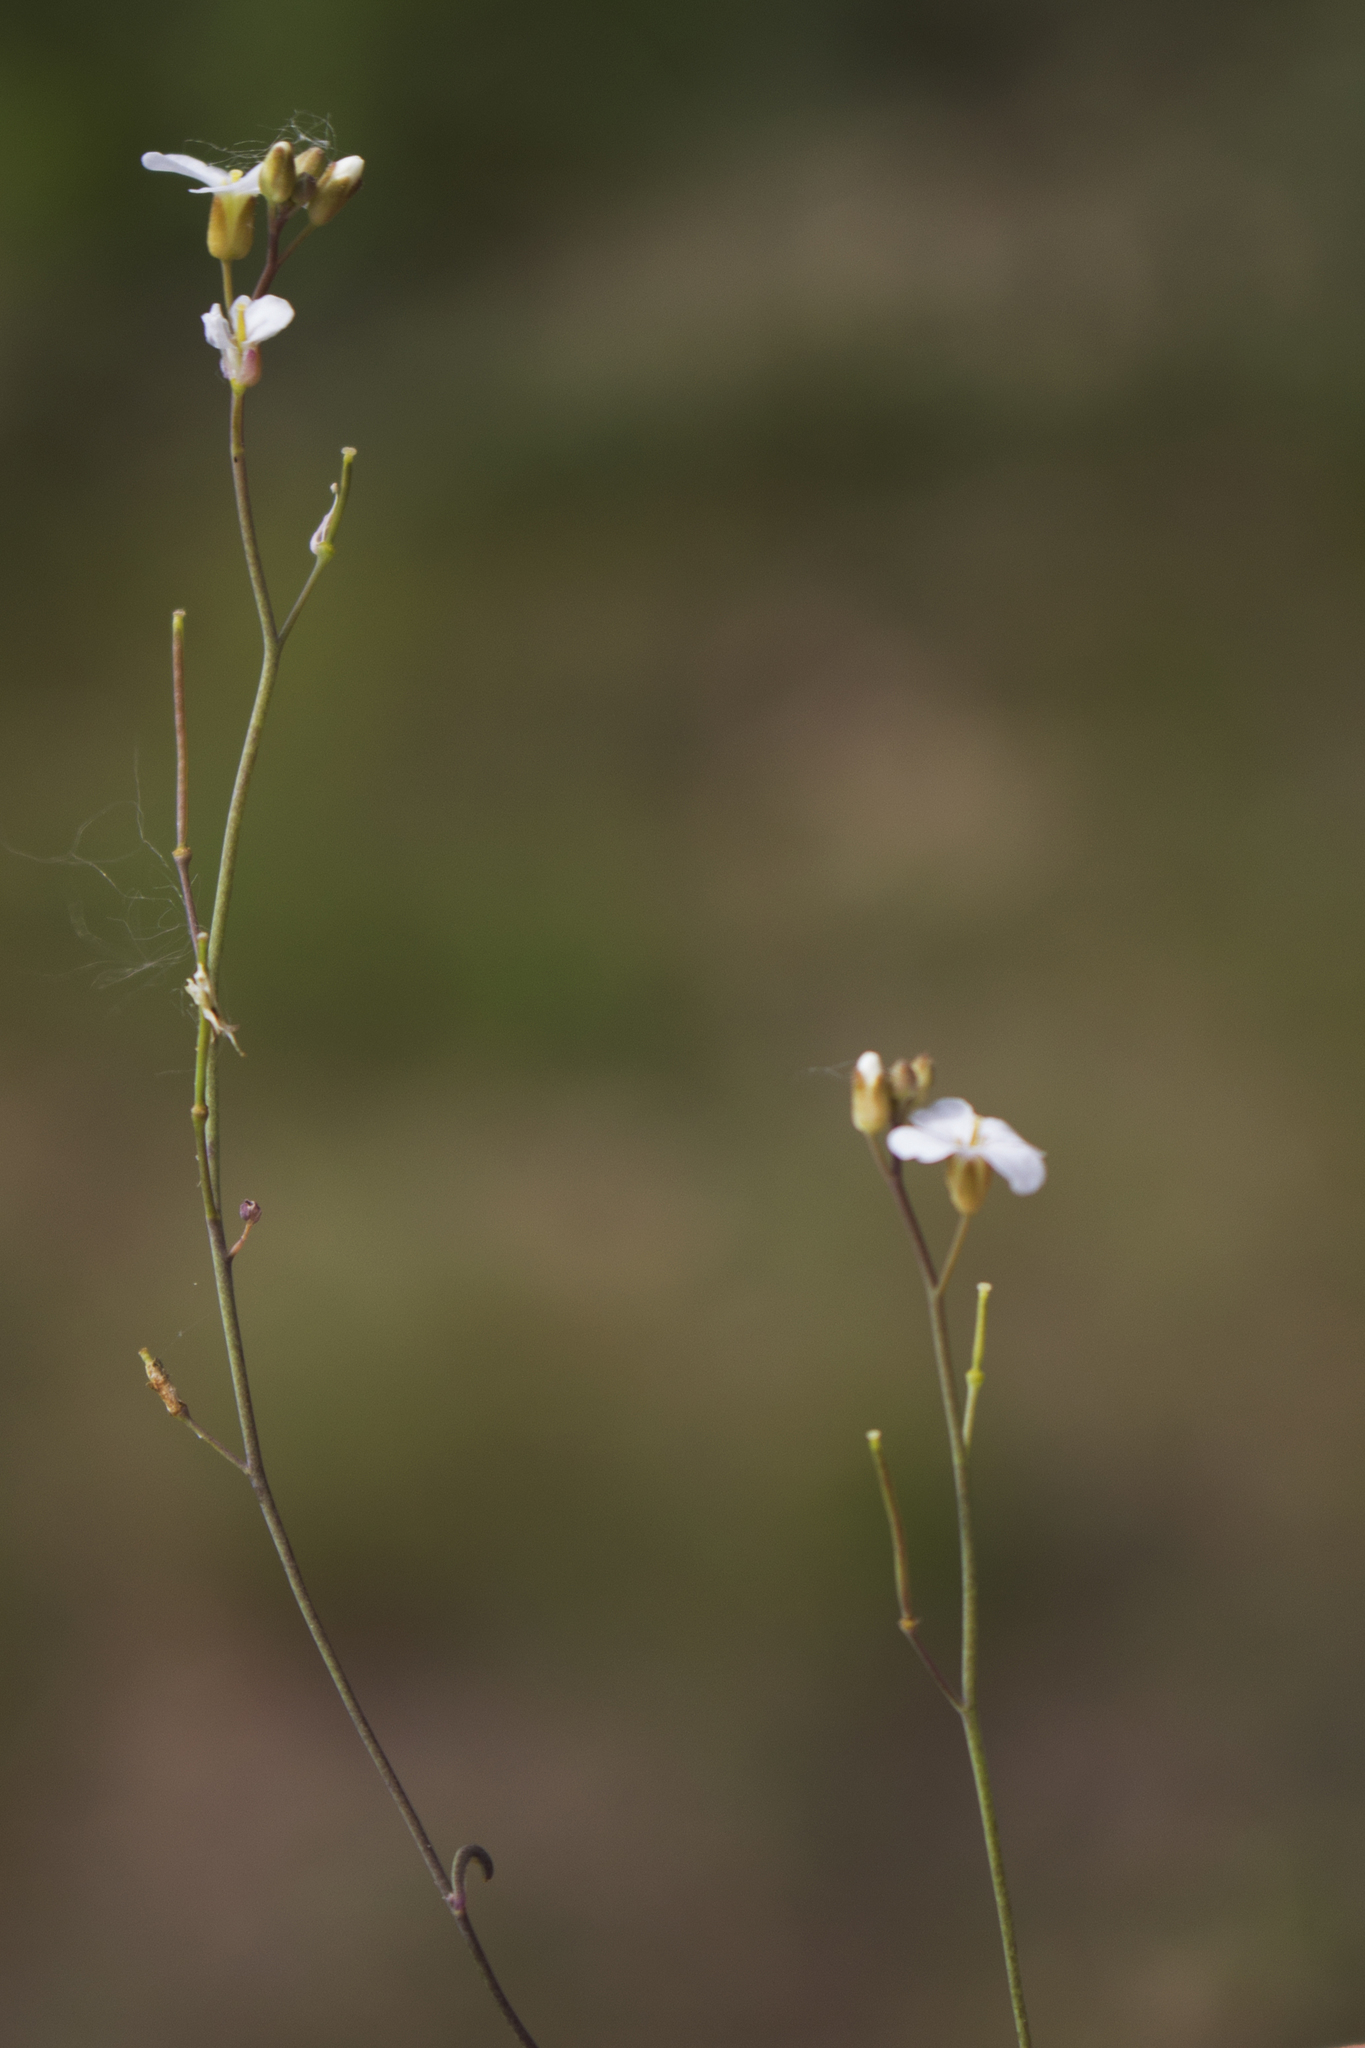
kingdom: Plantae
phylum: Tracheophyta
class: Magnoliopsida
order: Brassicales
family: Brassicaceae
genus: Arabidopsis
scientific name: Arabidopsis lyrata
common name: Lyrate rockcress
